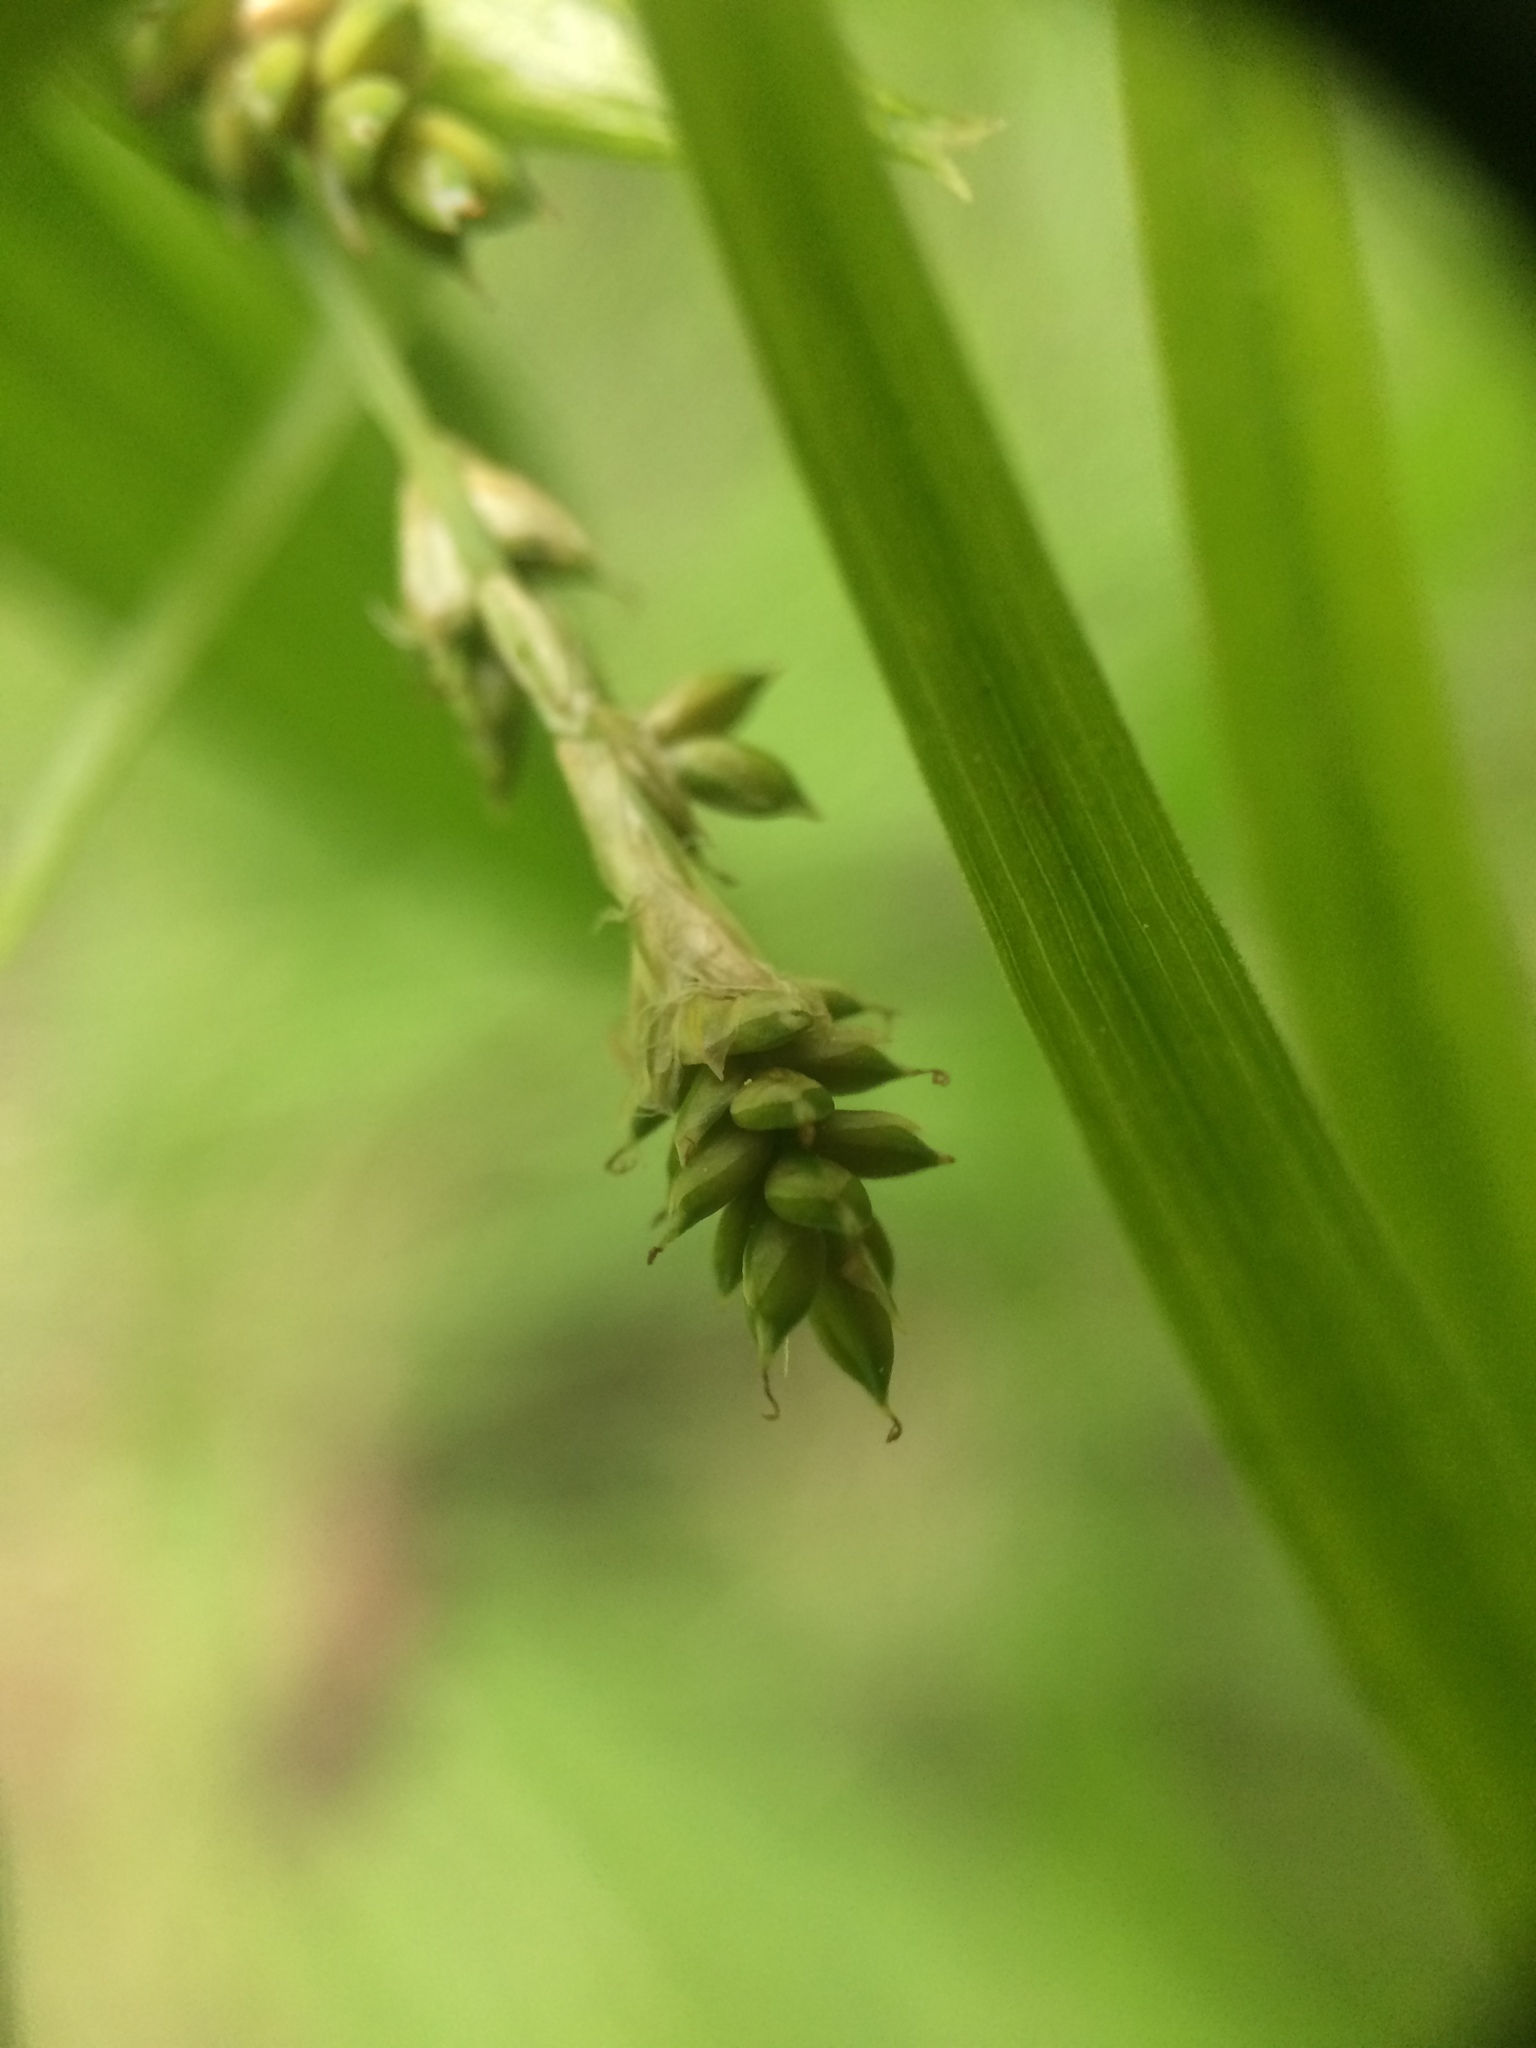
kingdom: Plantae
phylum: Tracheophyta
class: Liliopsida
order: Poales
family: Cyperaceae
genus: Carex
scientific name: Carex canescens
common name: White sedge
